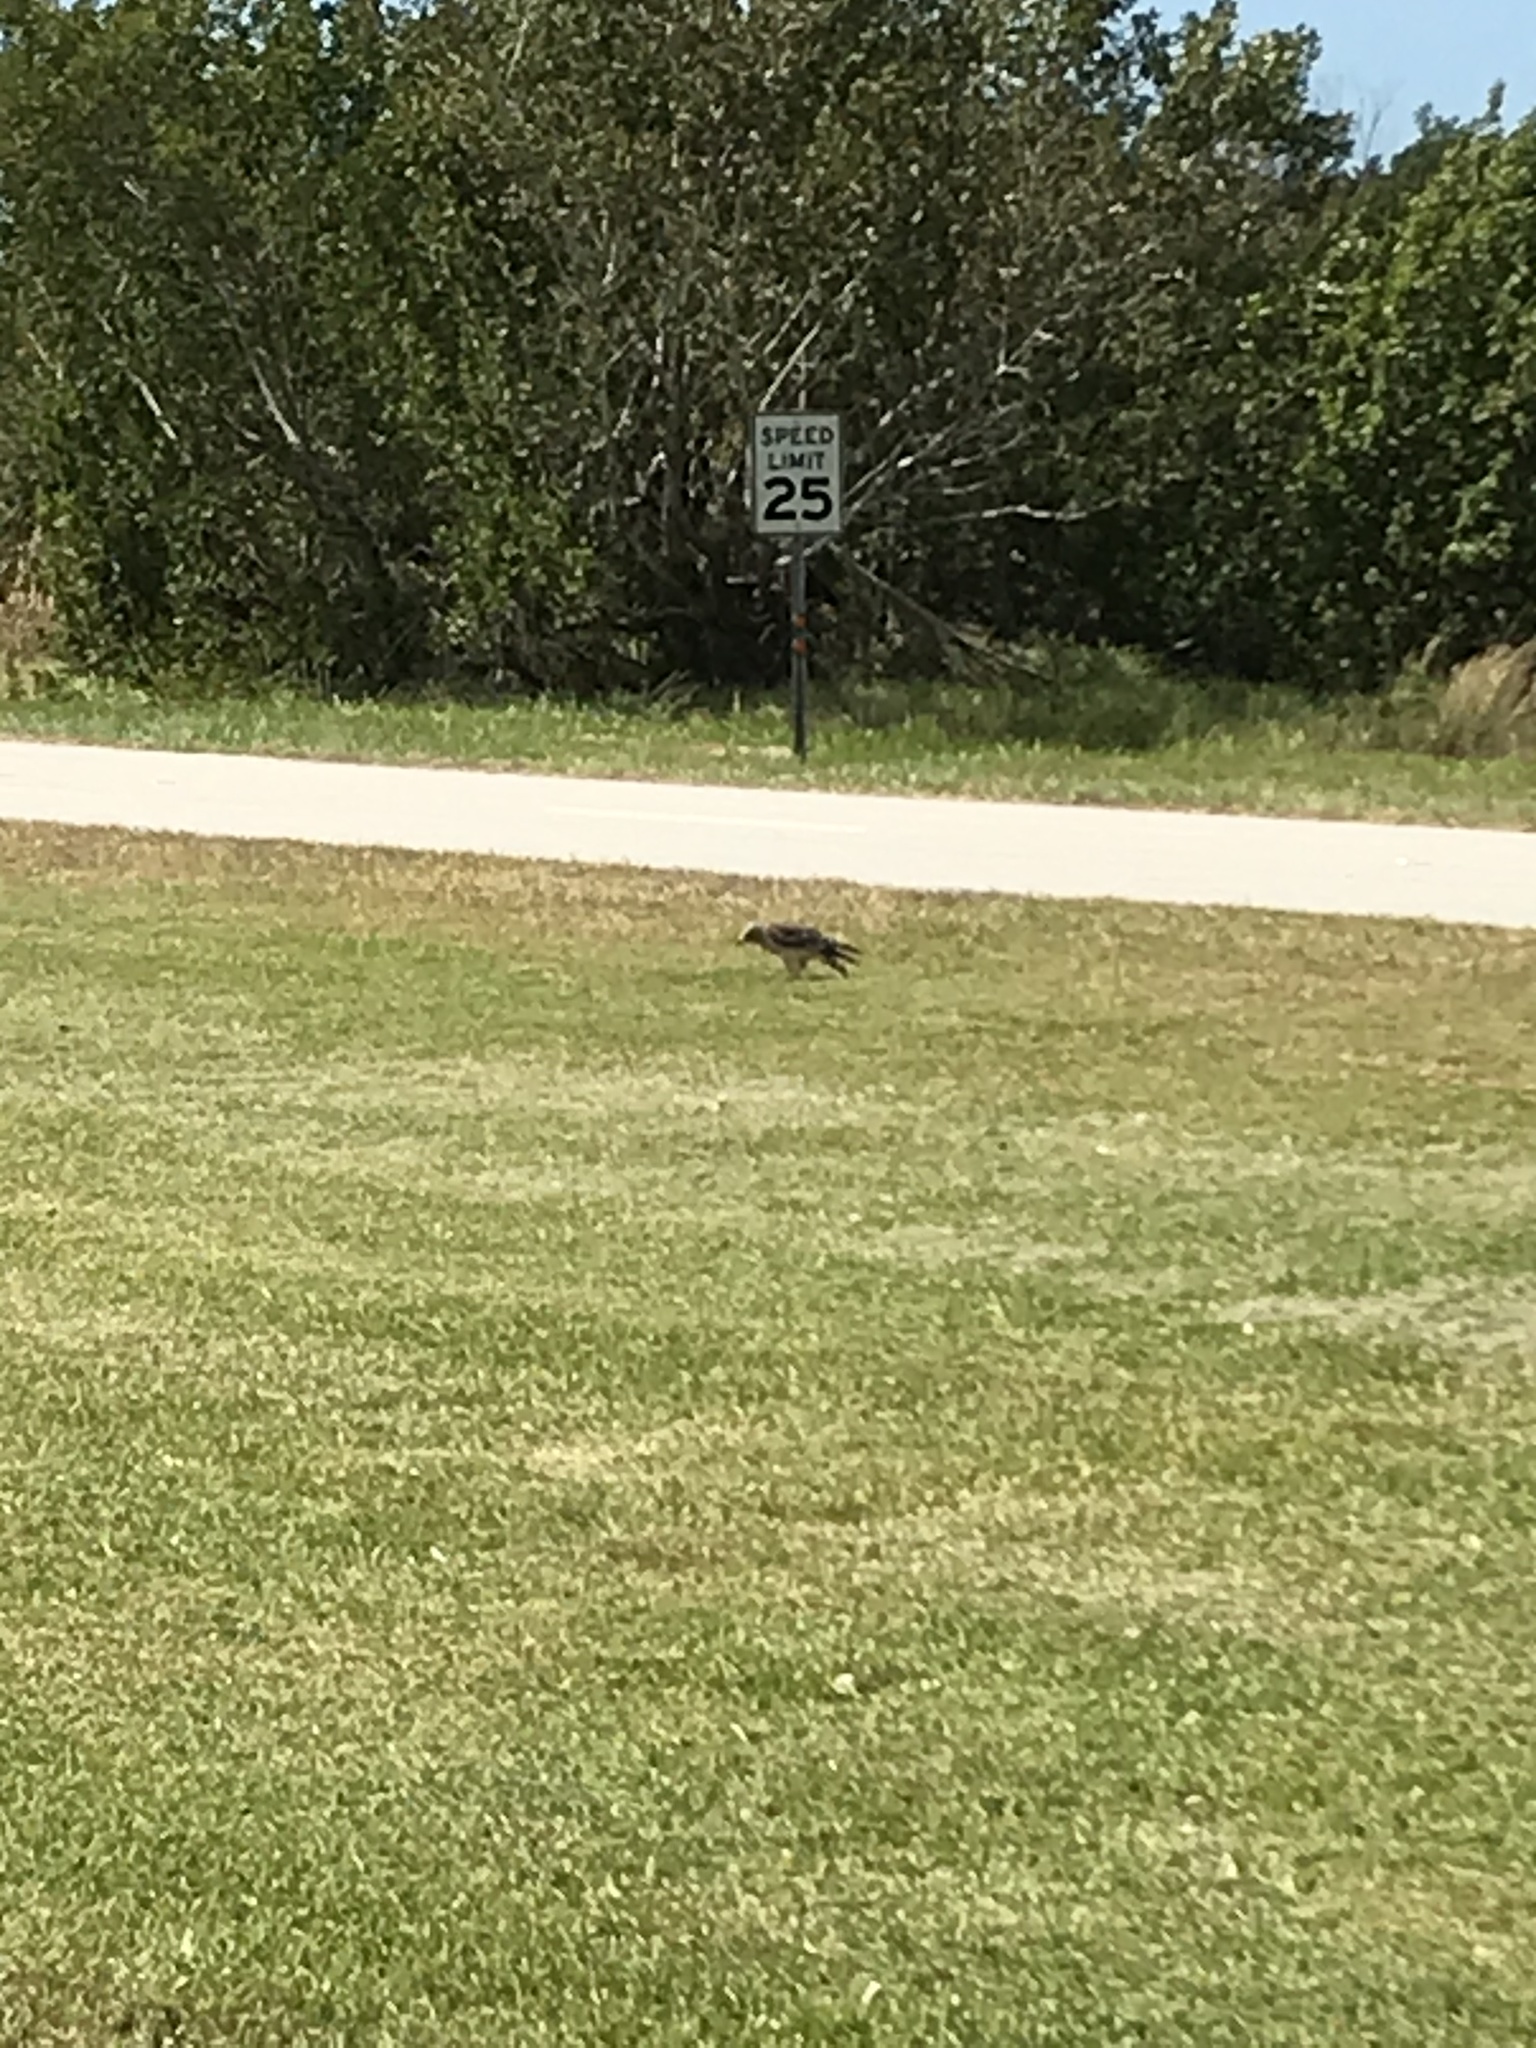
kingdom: Animalia
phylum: Chordata
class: Aves
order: Accipitriformes
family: Accipitridae
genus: Buteo
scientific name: Buteo lineatus
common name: Red-shouldered hawk
